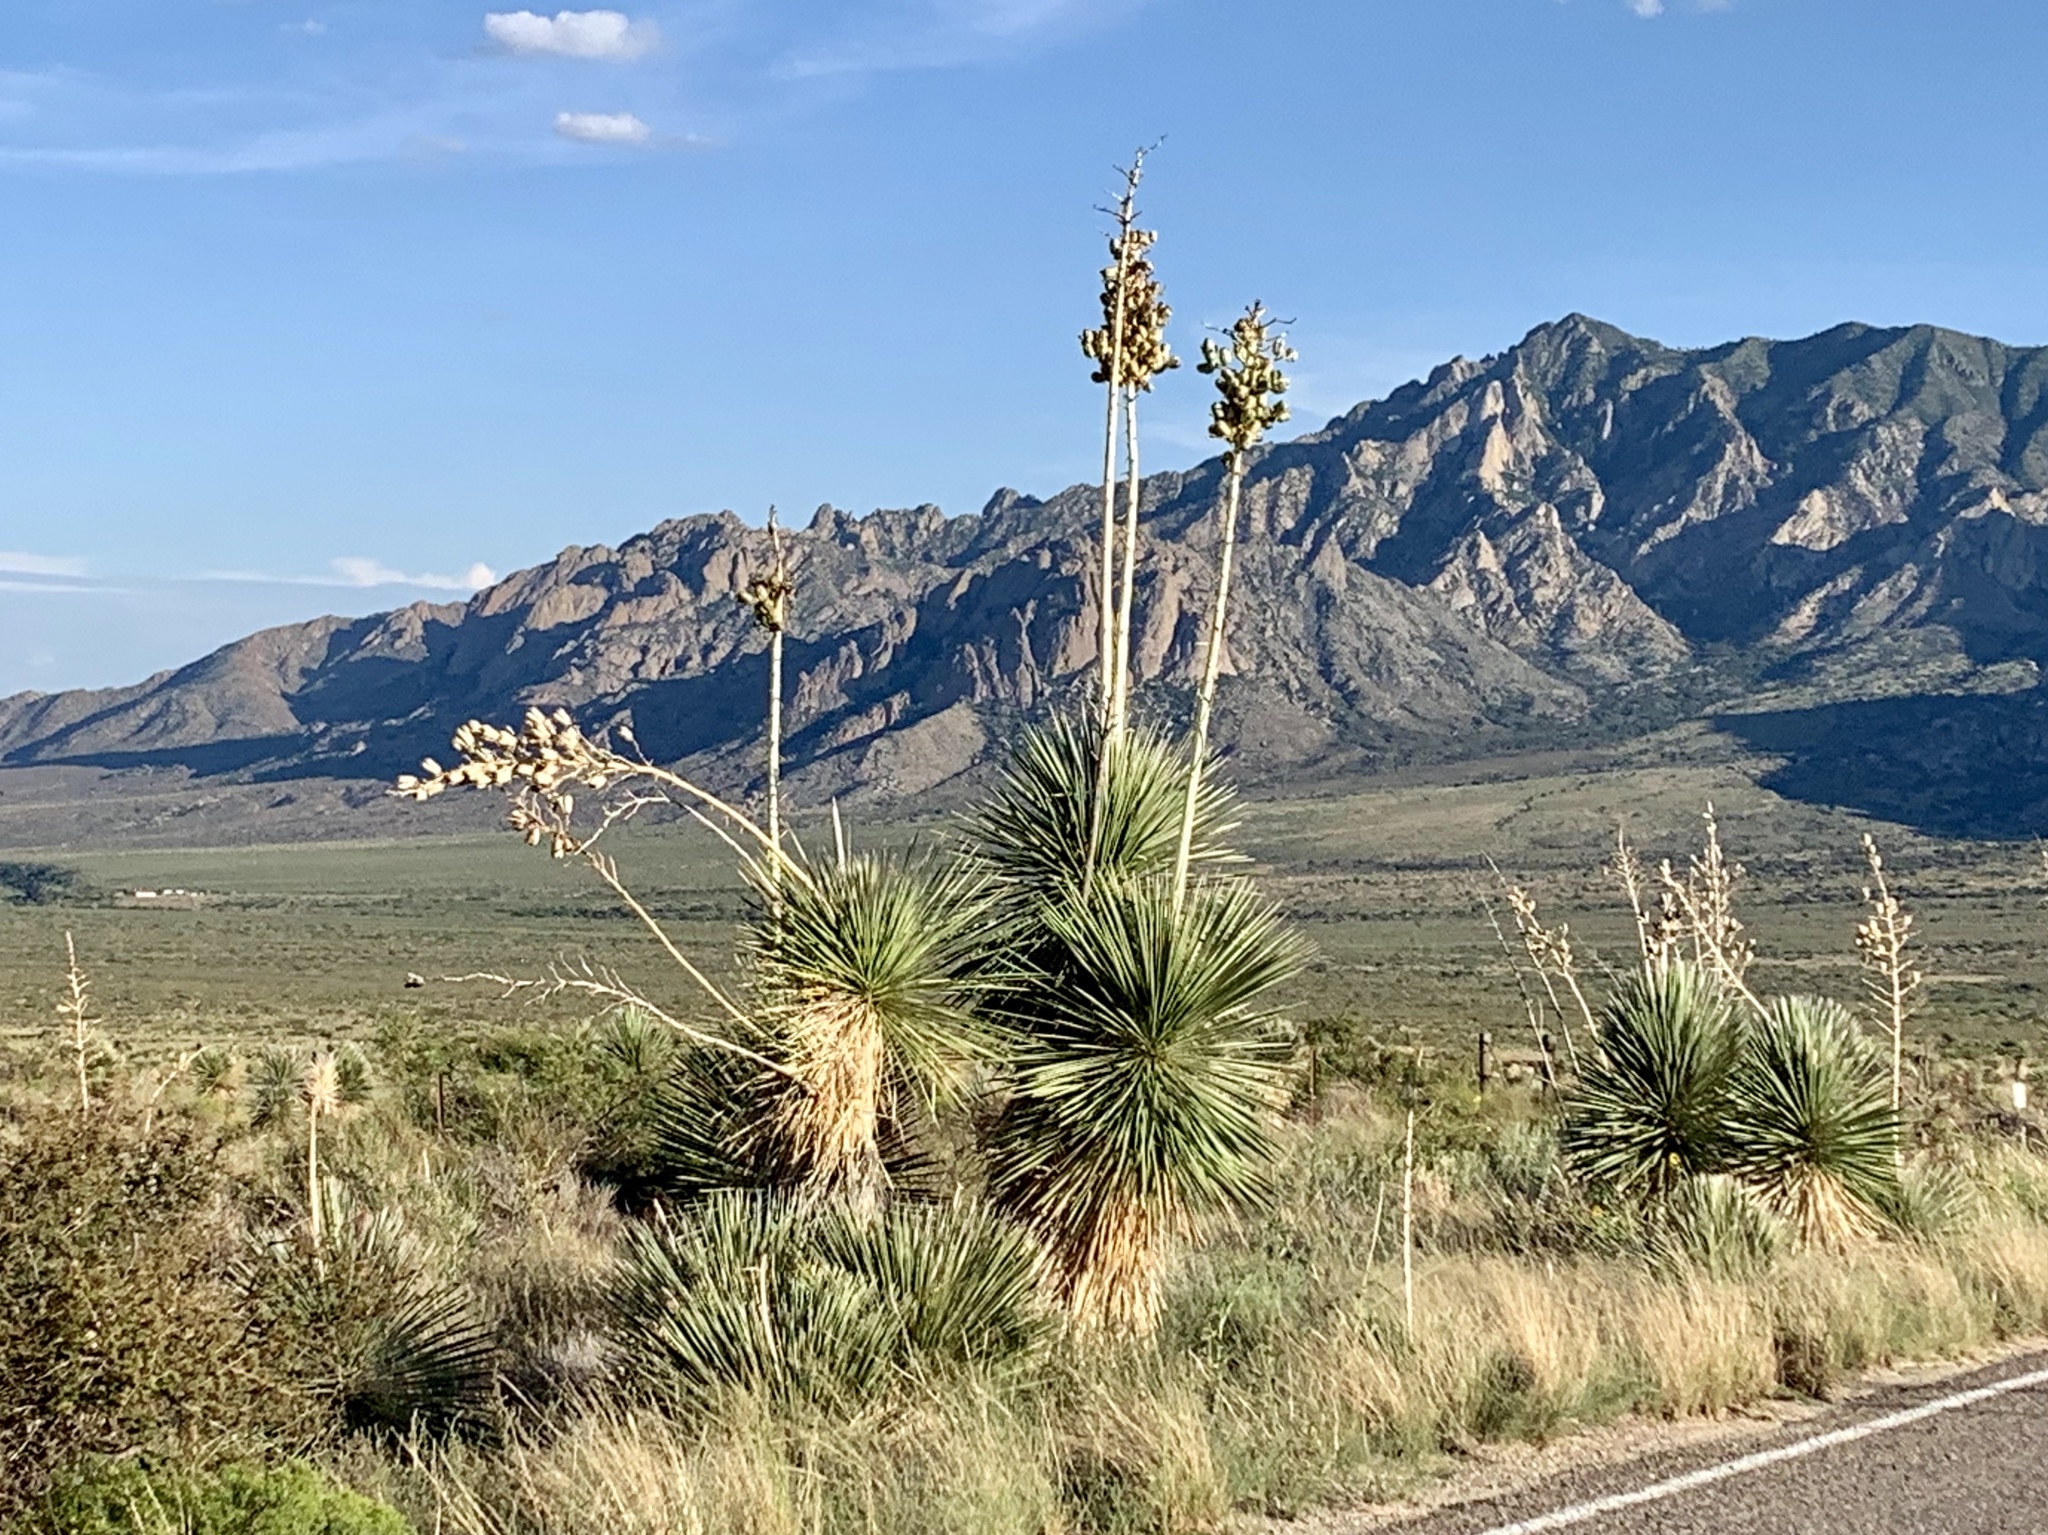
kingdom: Plantae
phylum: Tracheophyta
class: Liliopsida
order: Asparagales
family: Asparagaceae
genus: Yucca
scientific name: Yucca elata
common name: Palmella
